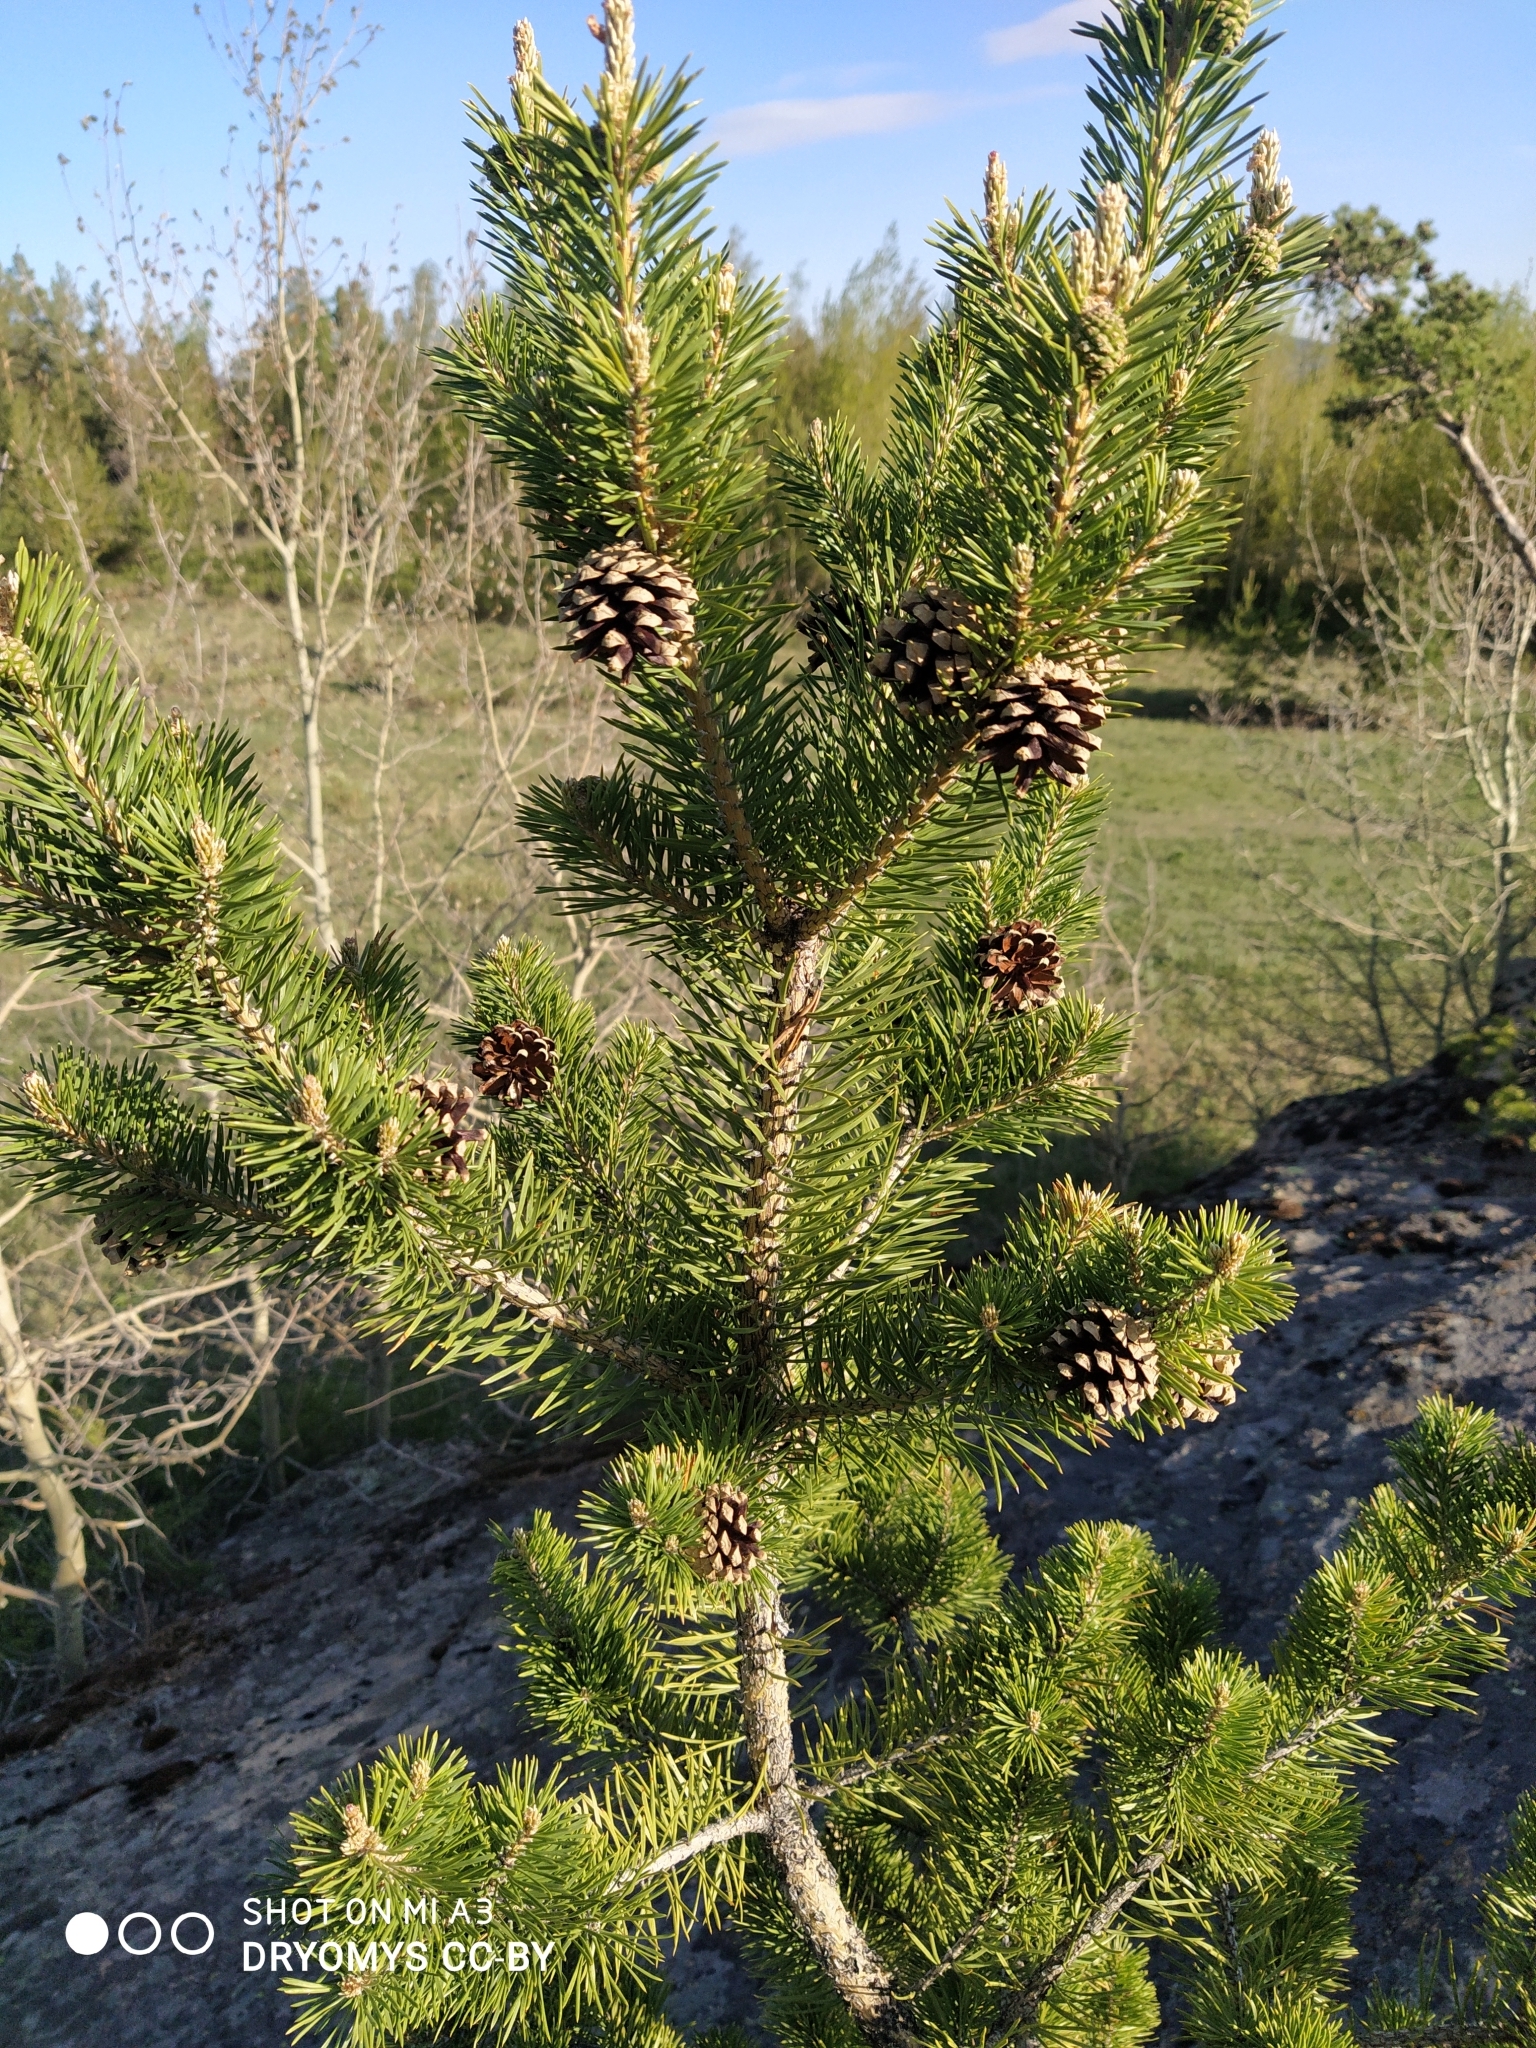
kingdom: Plantae
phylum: Tracheophyta
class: Pinopsida
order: Pinales
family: Pinaceae
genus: Pinus
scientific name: Pinus sylvestris
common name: Scots pine
